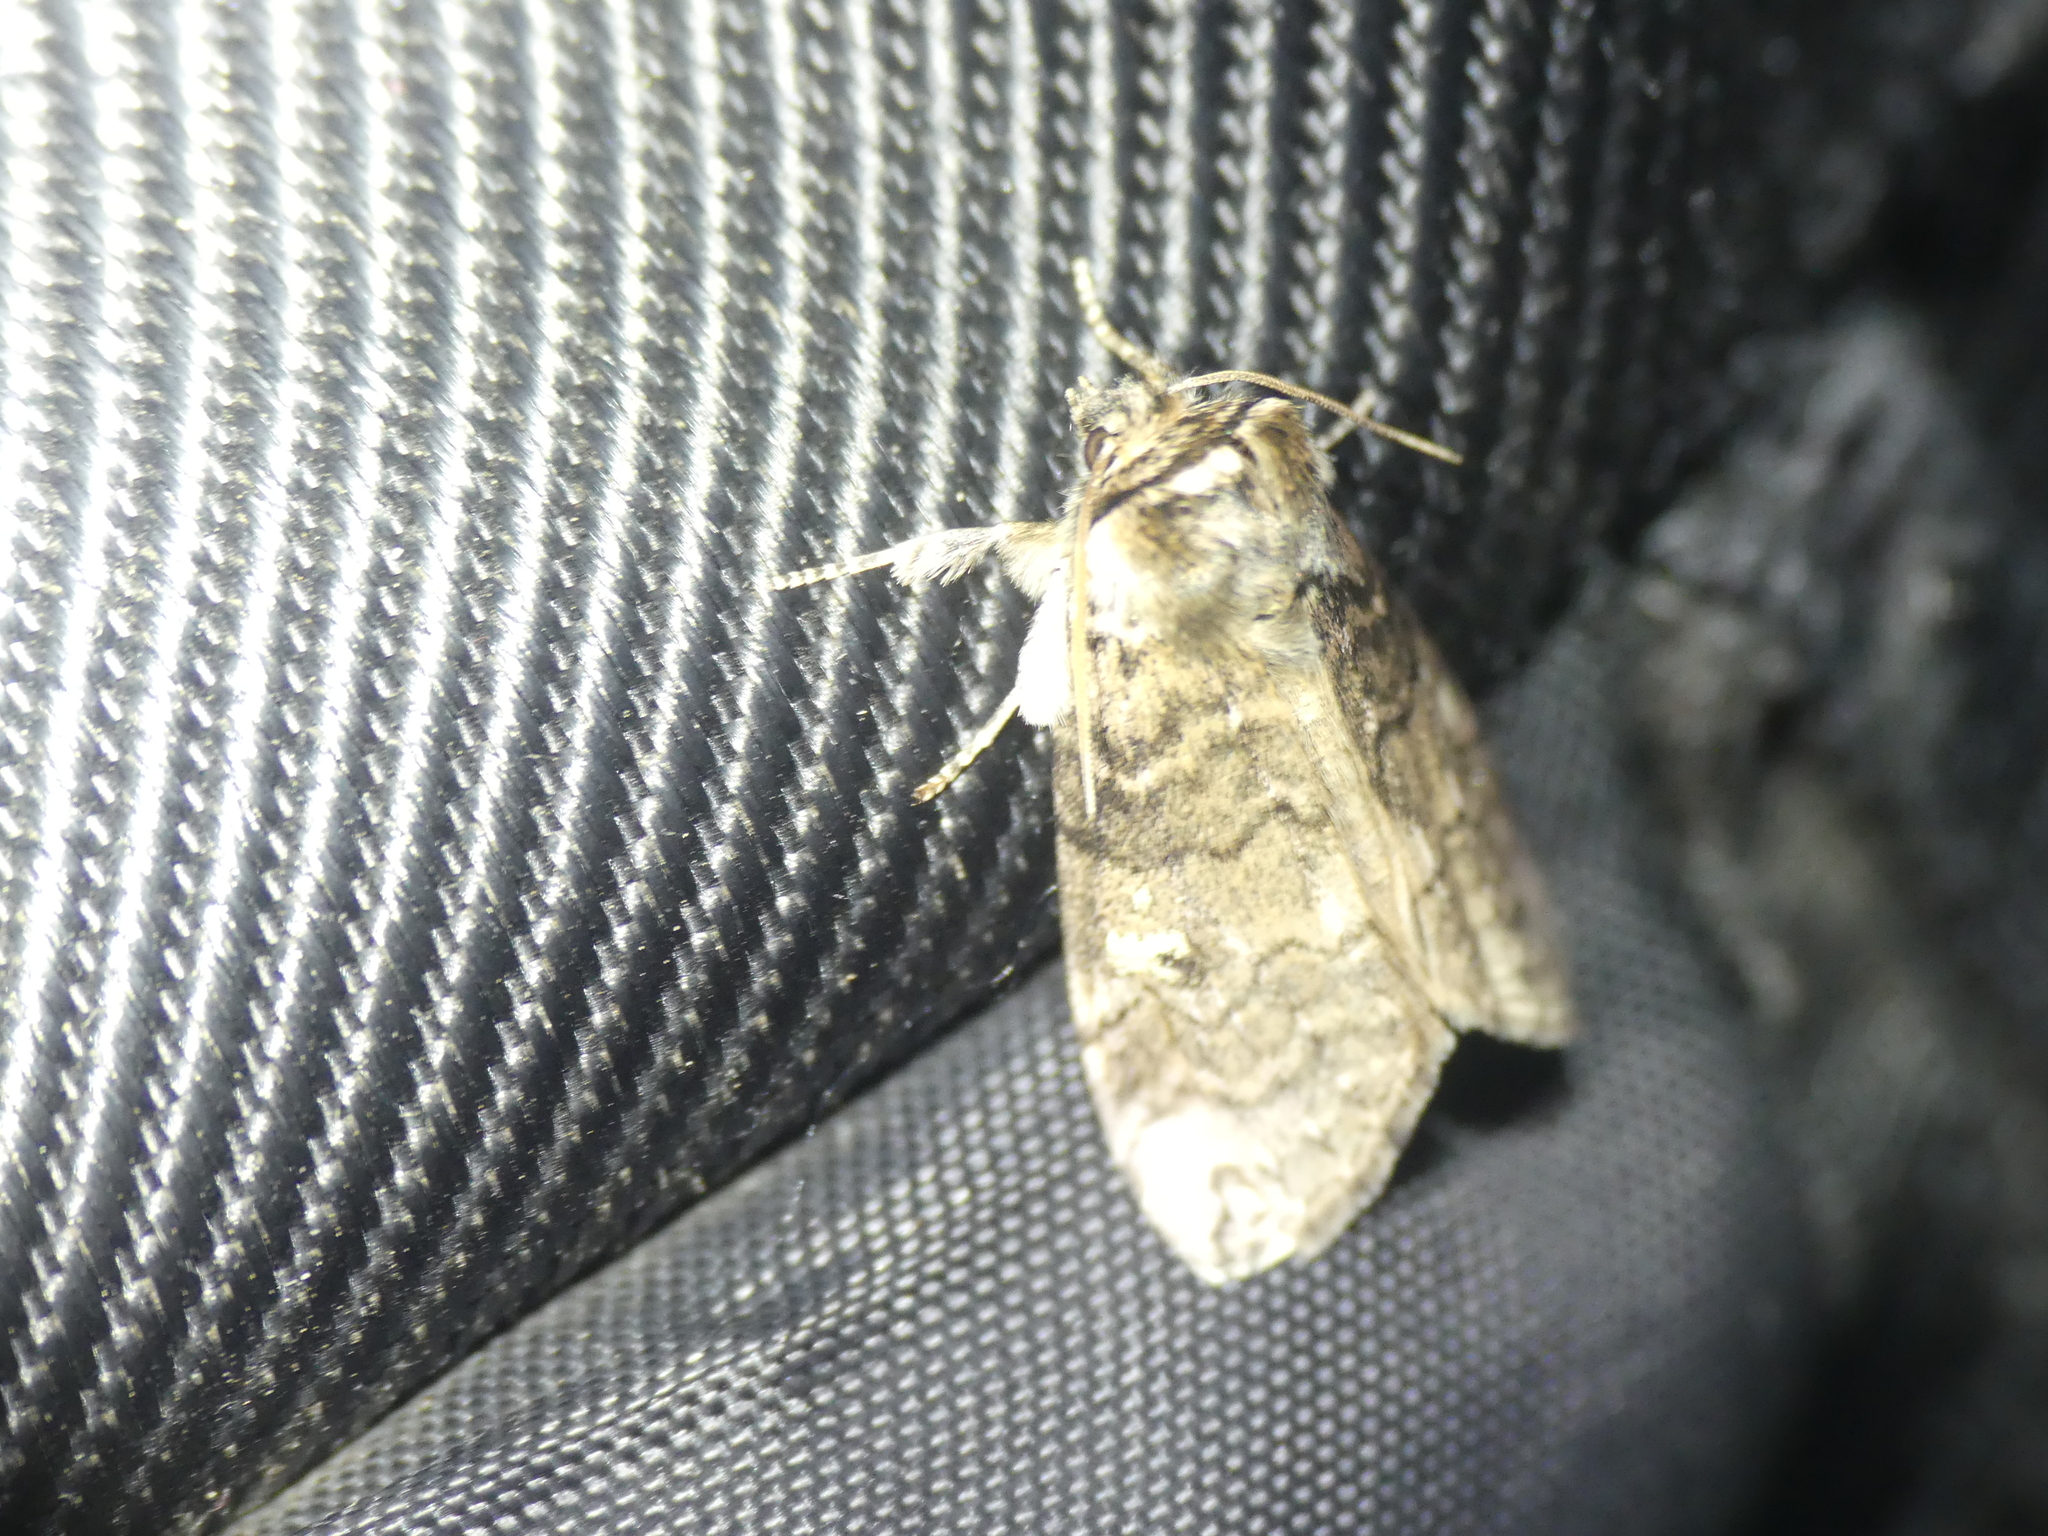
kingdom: Animalia
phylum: Arthropoda
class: Insecta
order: Lepidoptera
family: Drepanidae
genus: Tethea
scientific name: Tethea or
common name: Poplar lutestring
